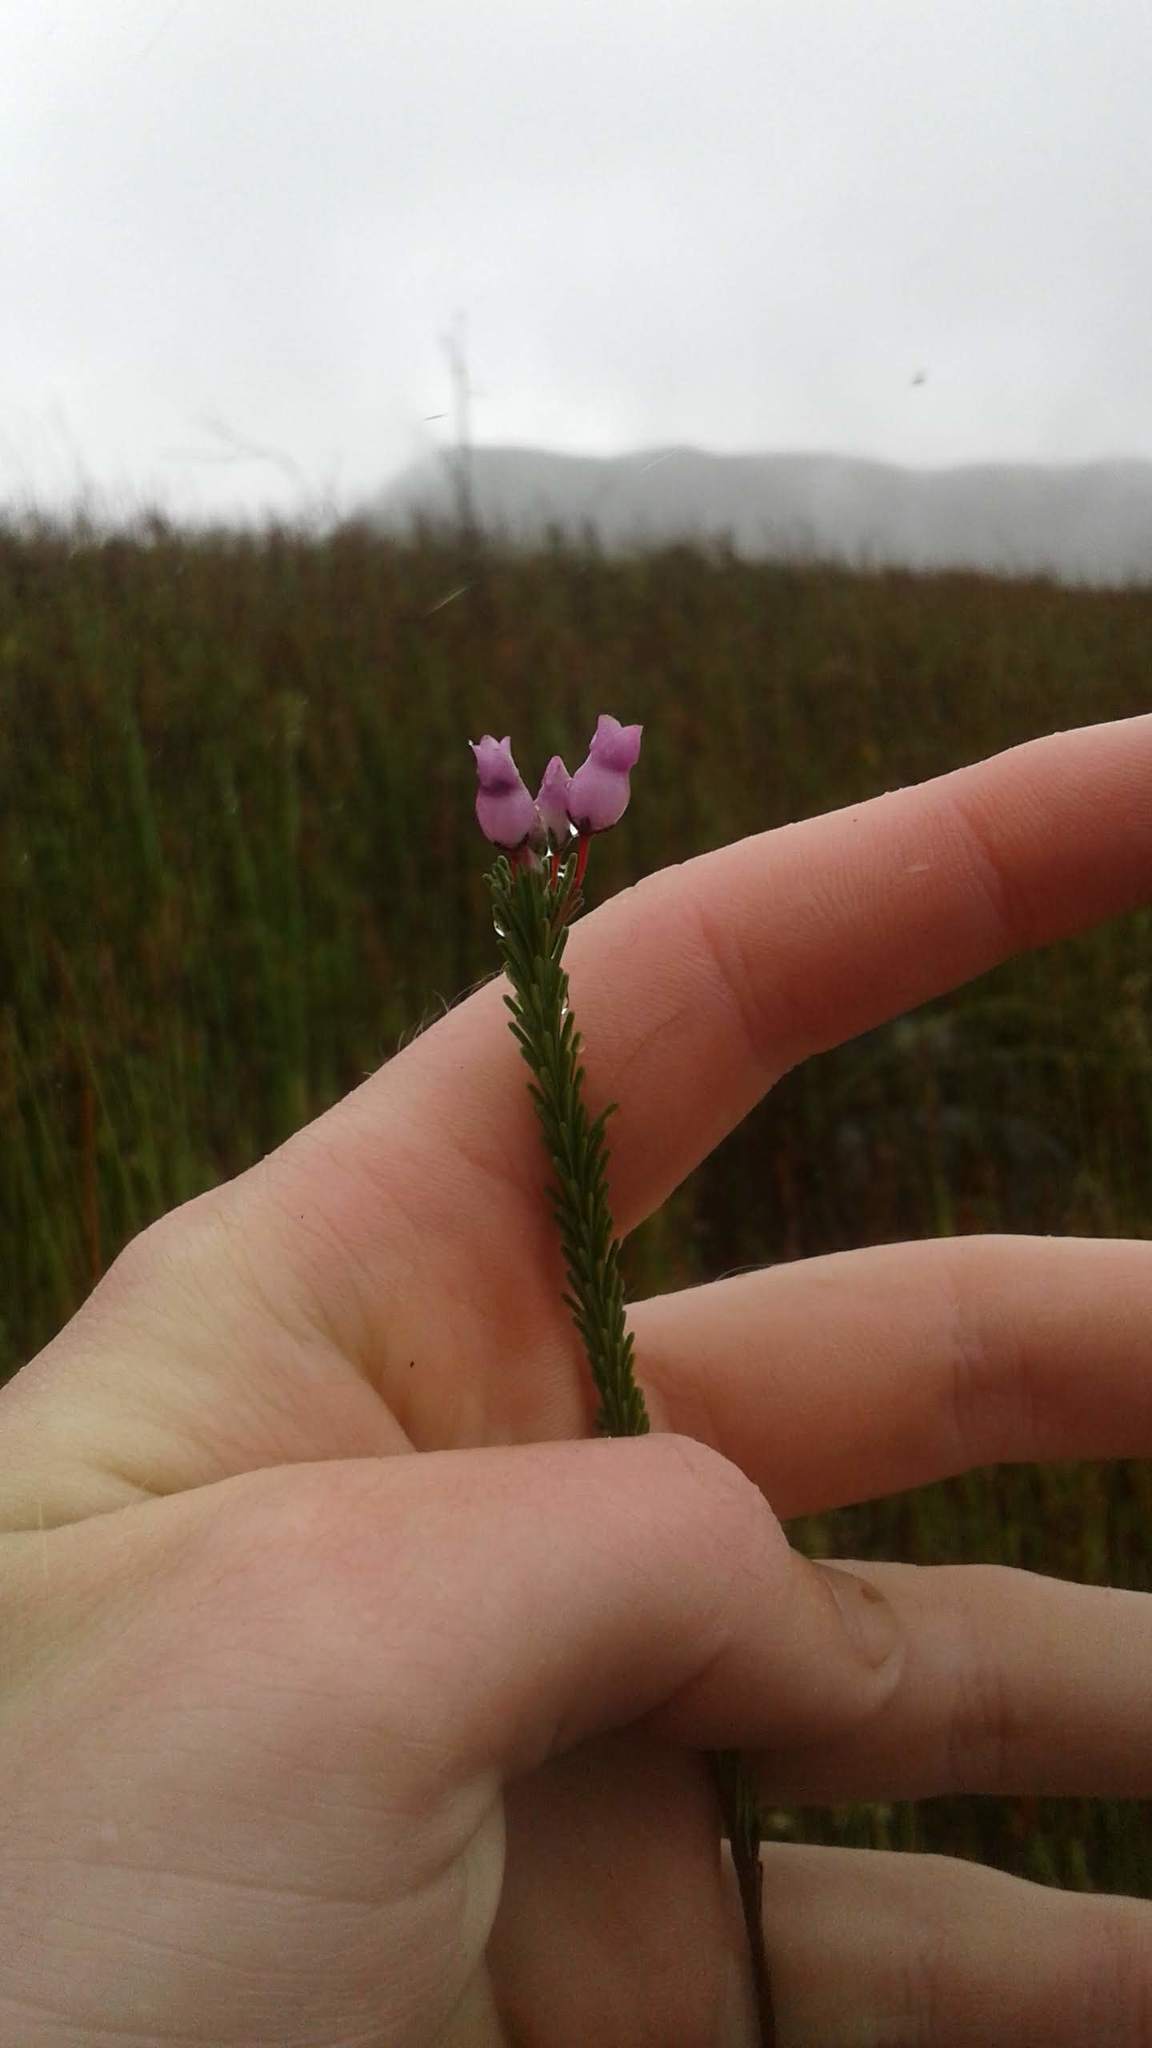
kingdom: Plantae
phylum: Tracheophyta
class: Magnoliopsida
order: Ericales
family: Ericaceae
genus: Erica
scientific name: Erica obliqua
